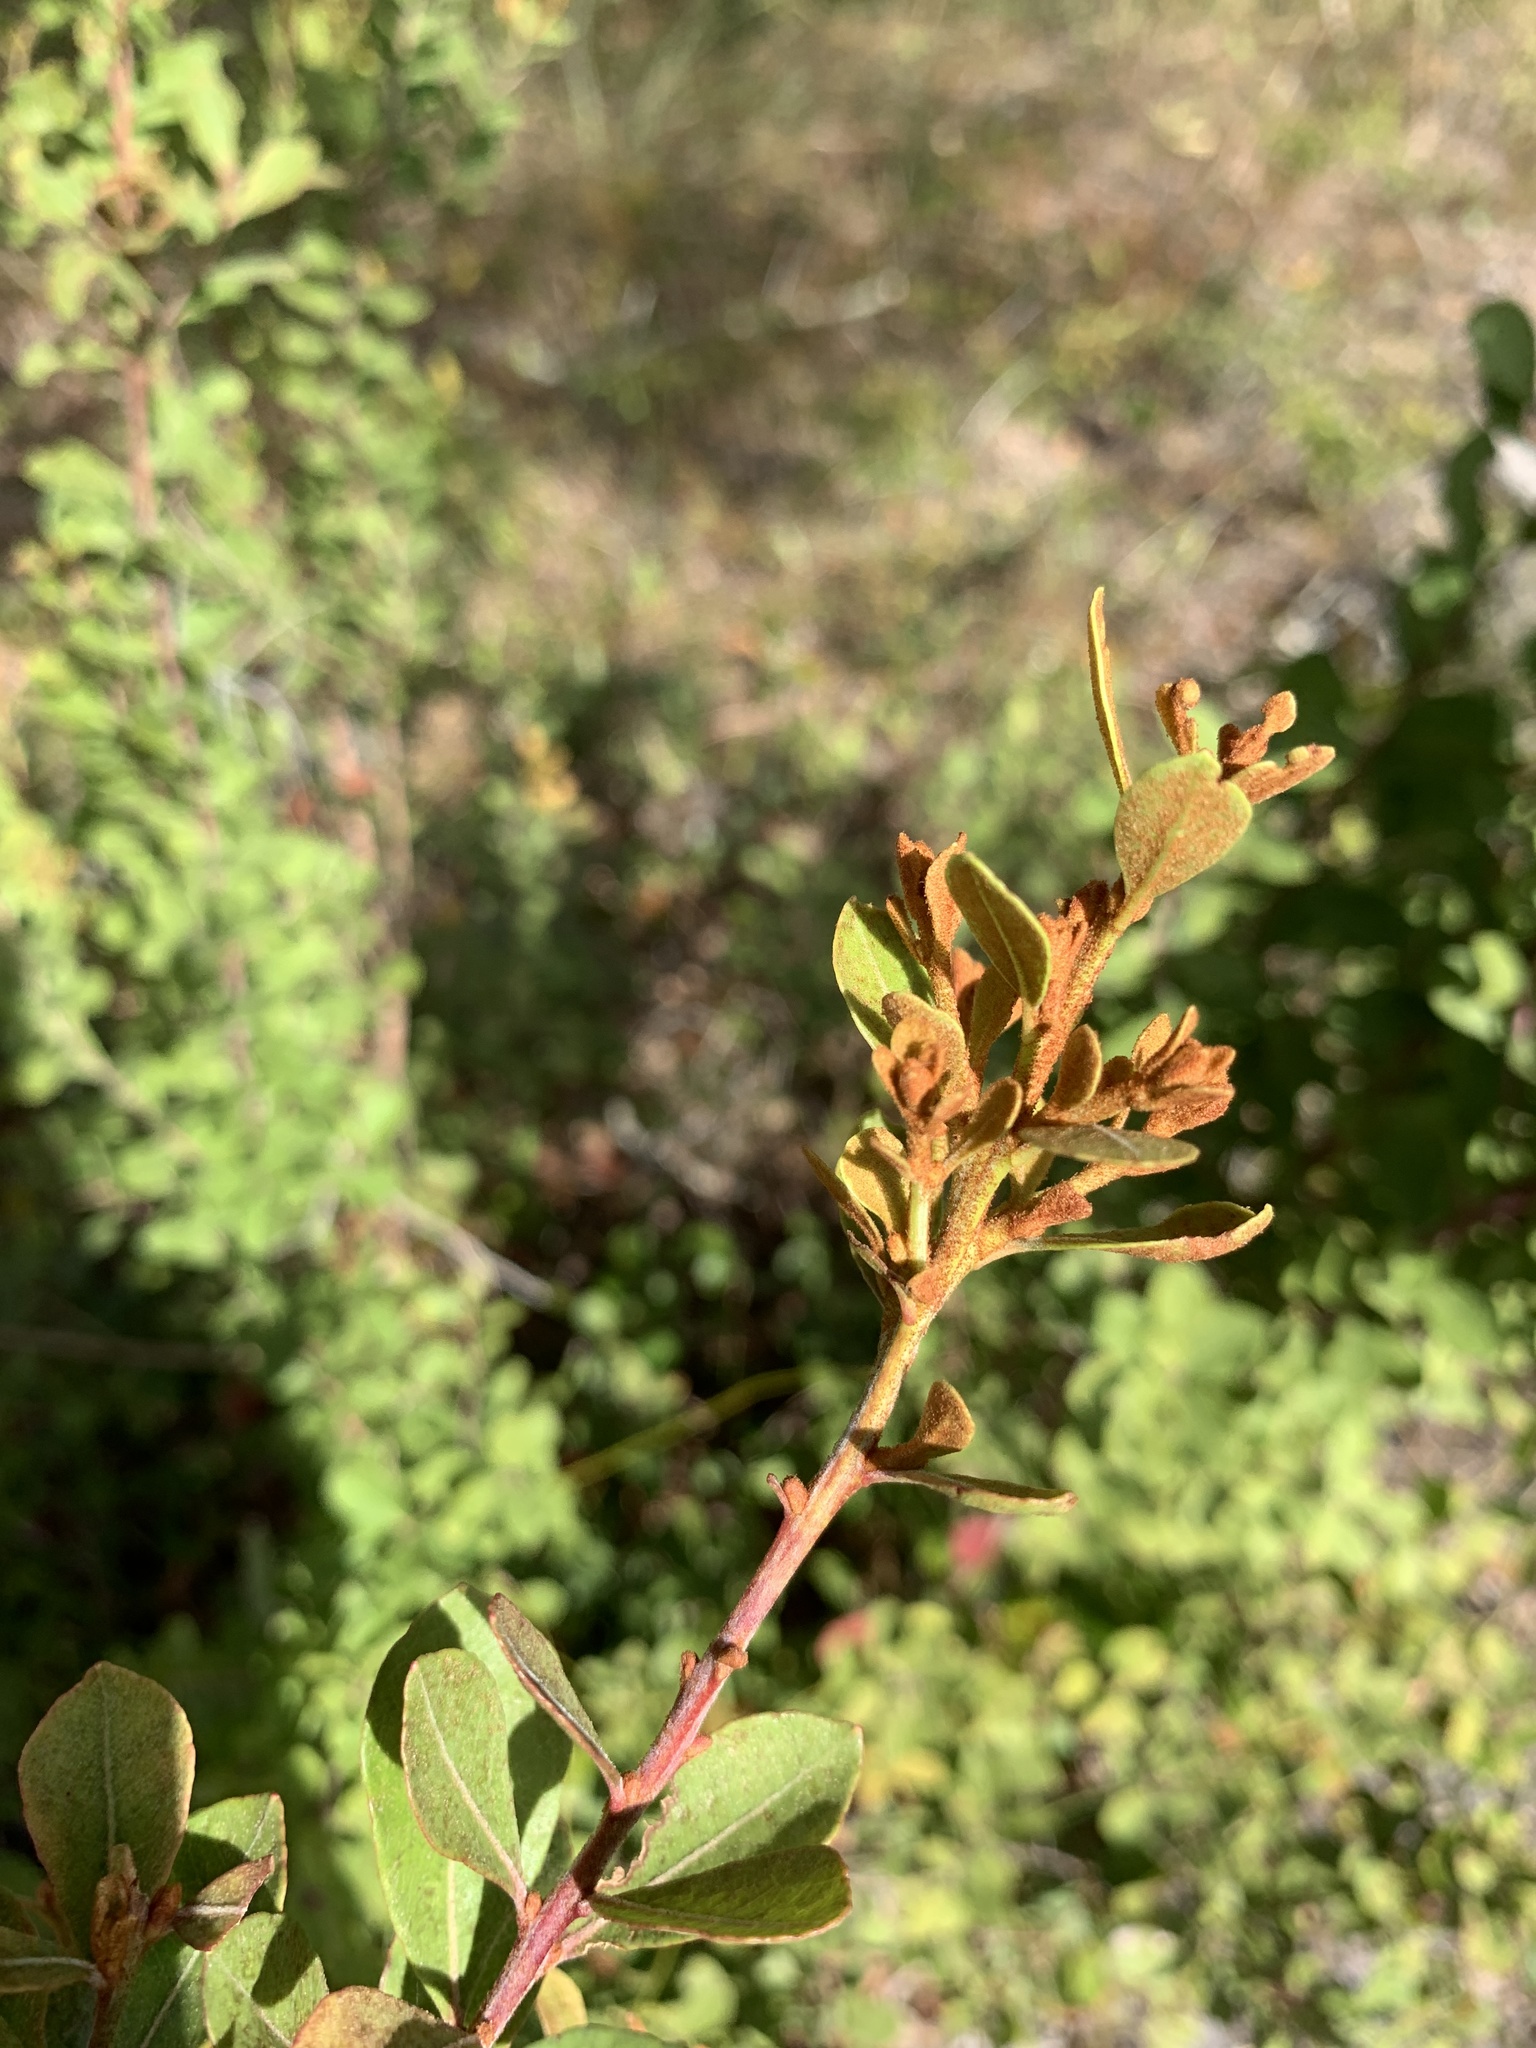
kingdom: Plantae
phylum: Tracheophyta
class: Magnoliopsida
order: Ericales
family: Ericaceae
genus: Lyonia
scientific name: Lyonia fruticosa
